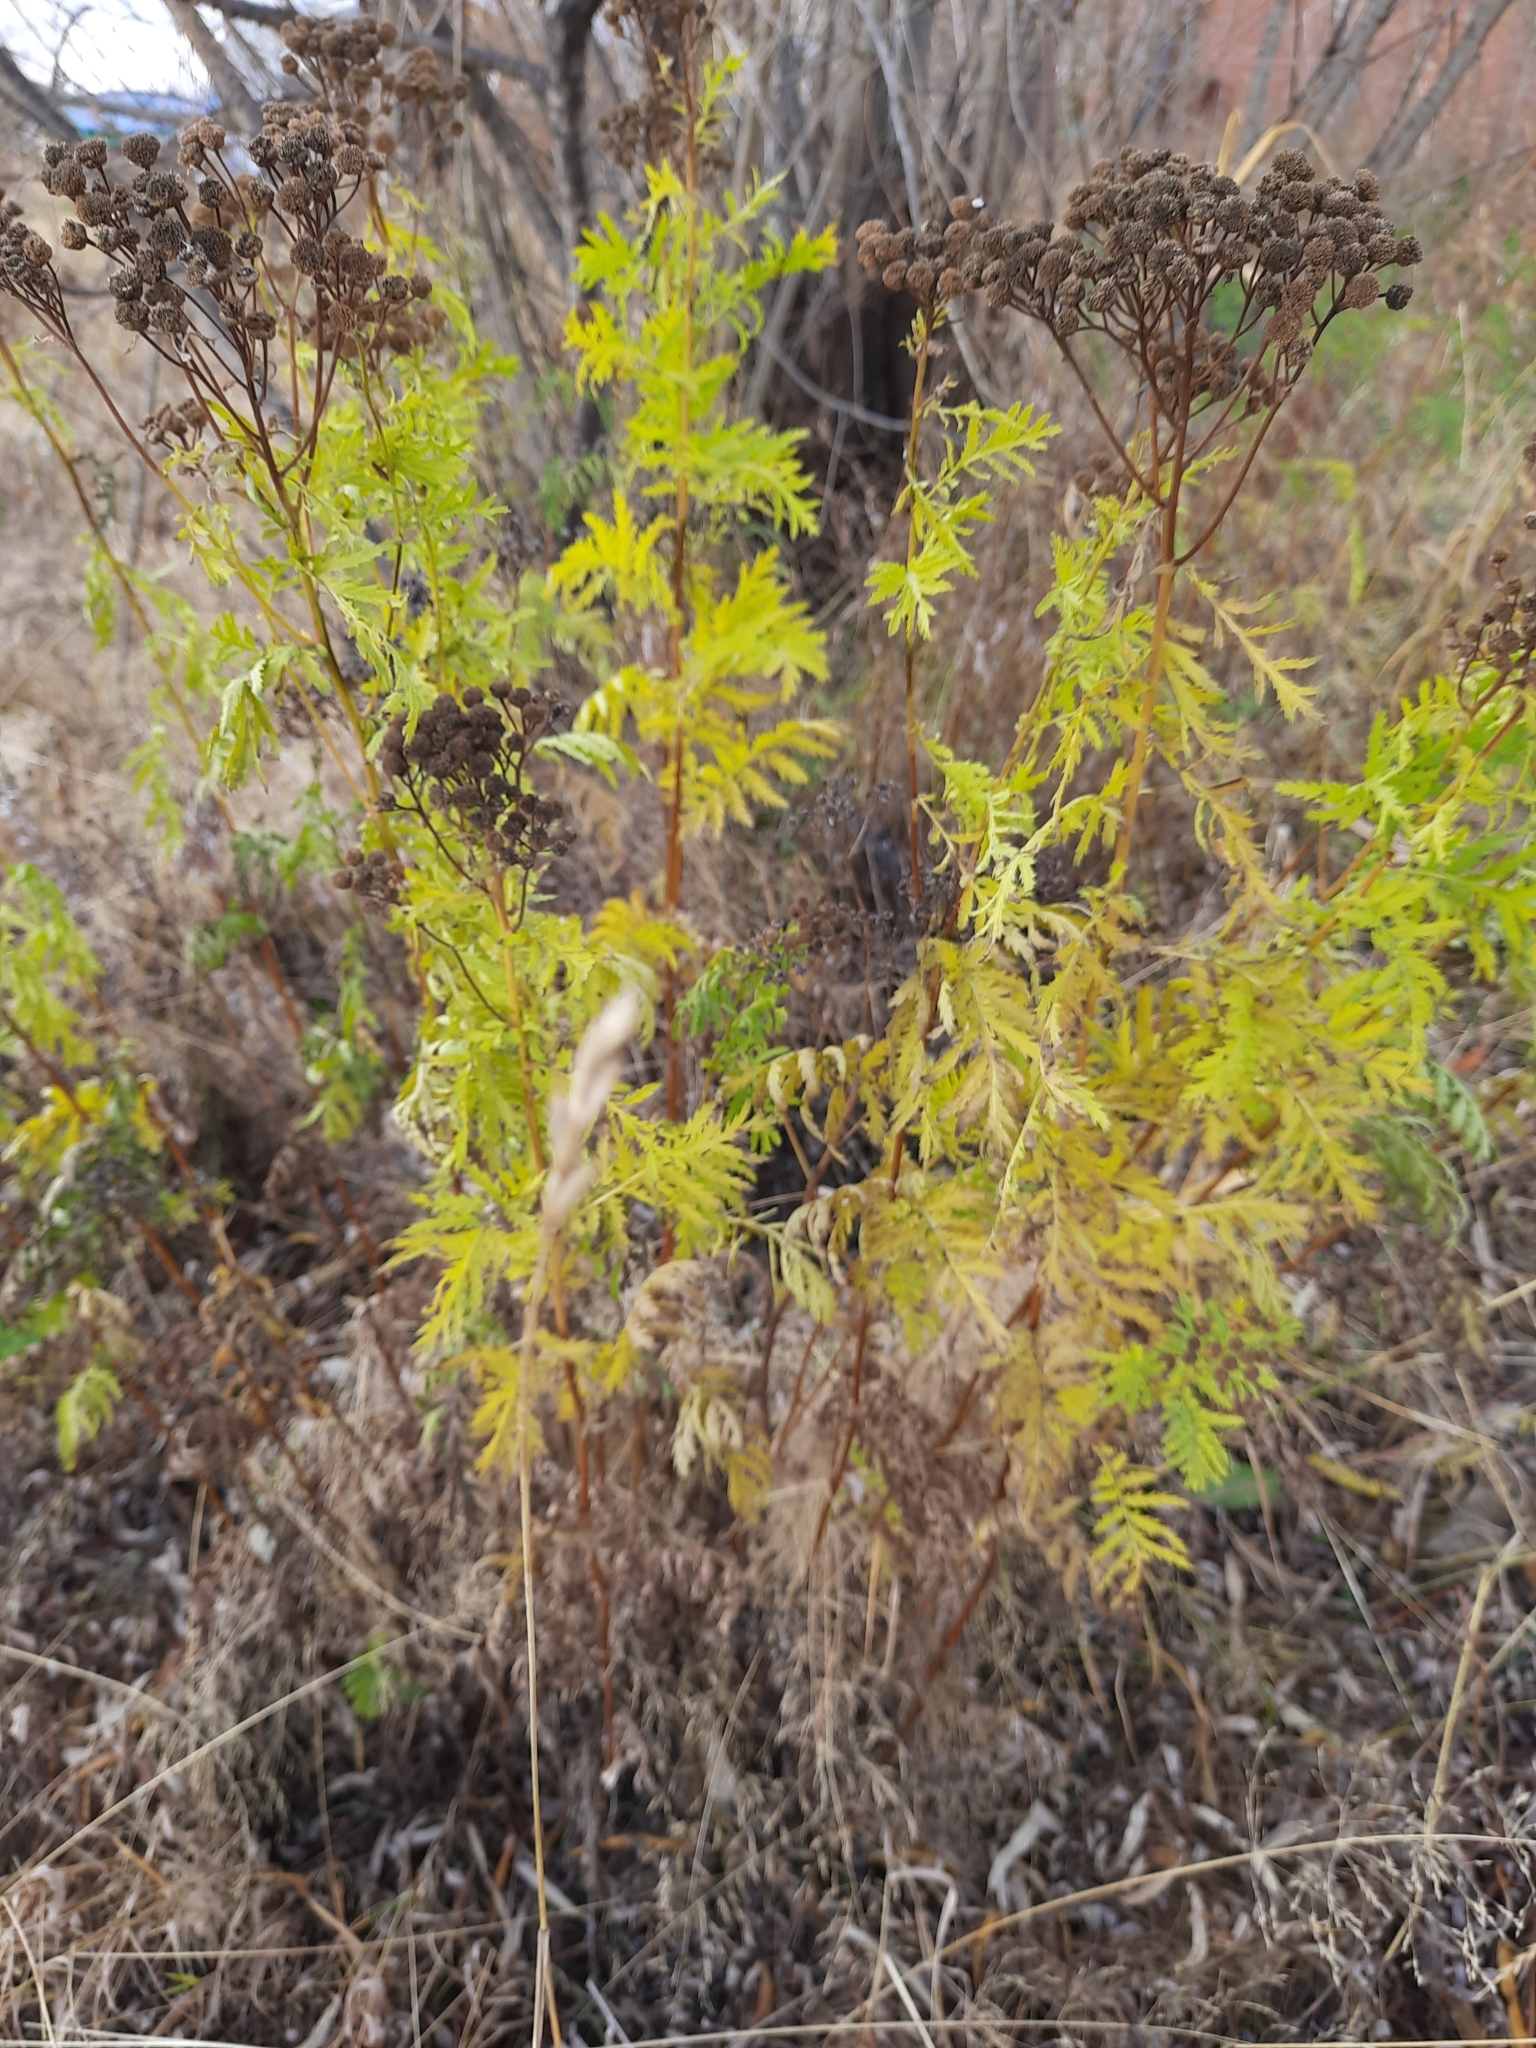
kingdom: Plantae
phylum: Tracheophyta
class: Magnoliopsida
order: Asterales
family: Asteraceae
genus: Tanacetum
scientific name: Tanacetum vulgare
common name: Common tansy
